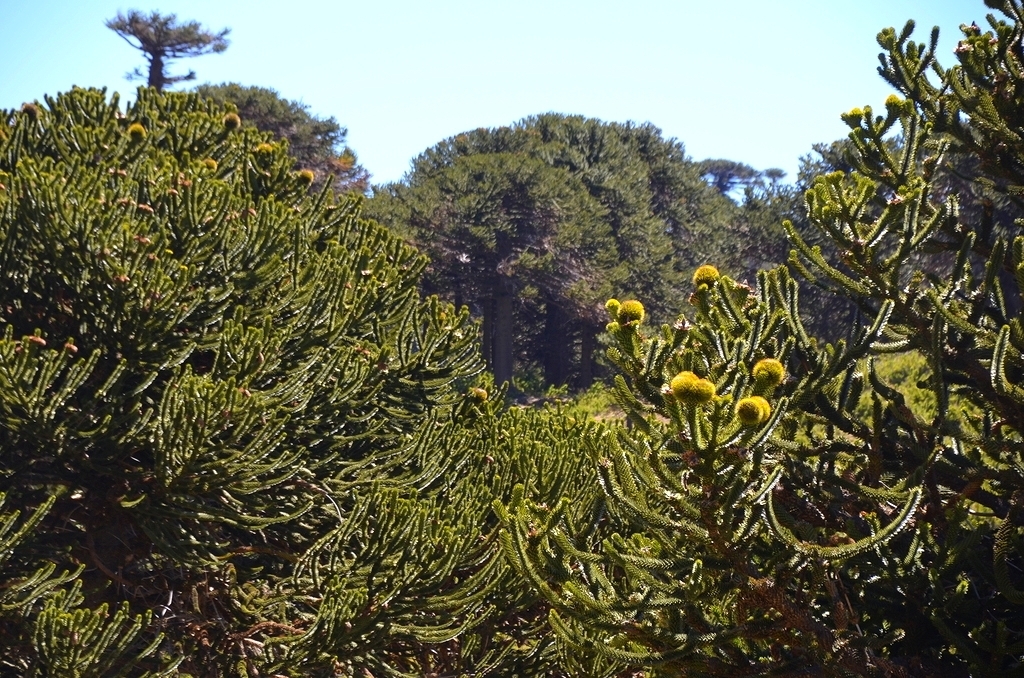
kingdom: Plantae
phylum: Tracheophyta
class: Pinopsida
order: Pinales
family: Araucariaceae
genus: Araucaria
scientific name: Araucaria araucana
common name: Monkey-puzzle
